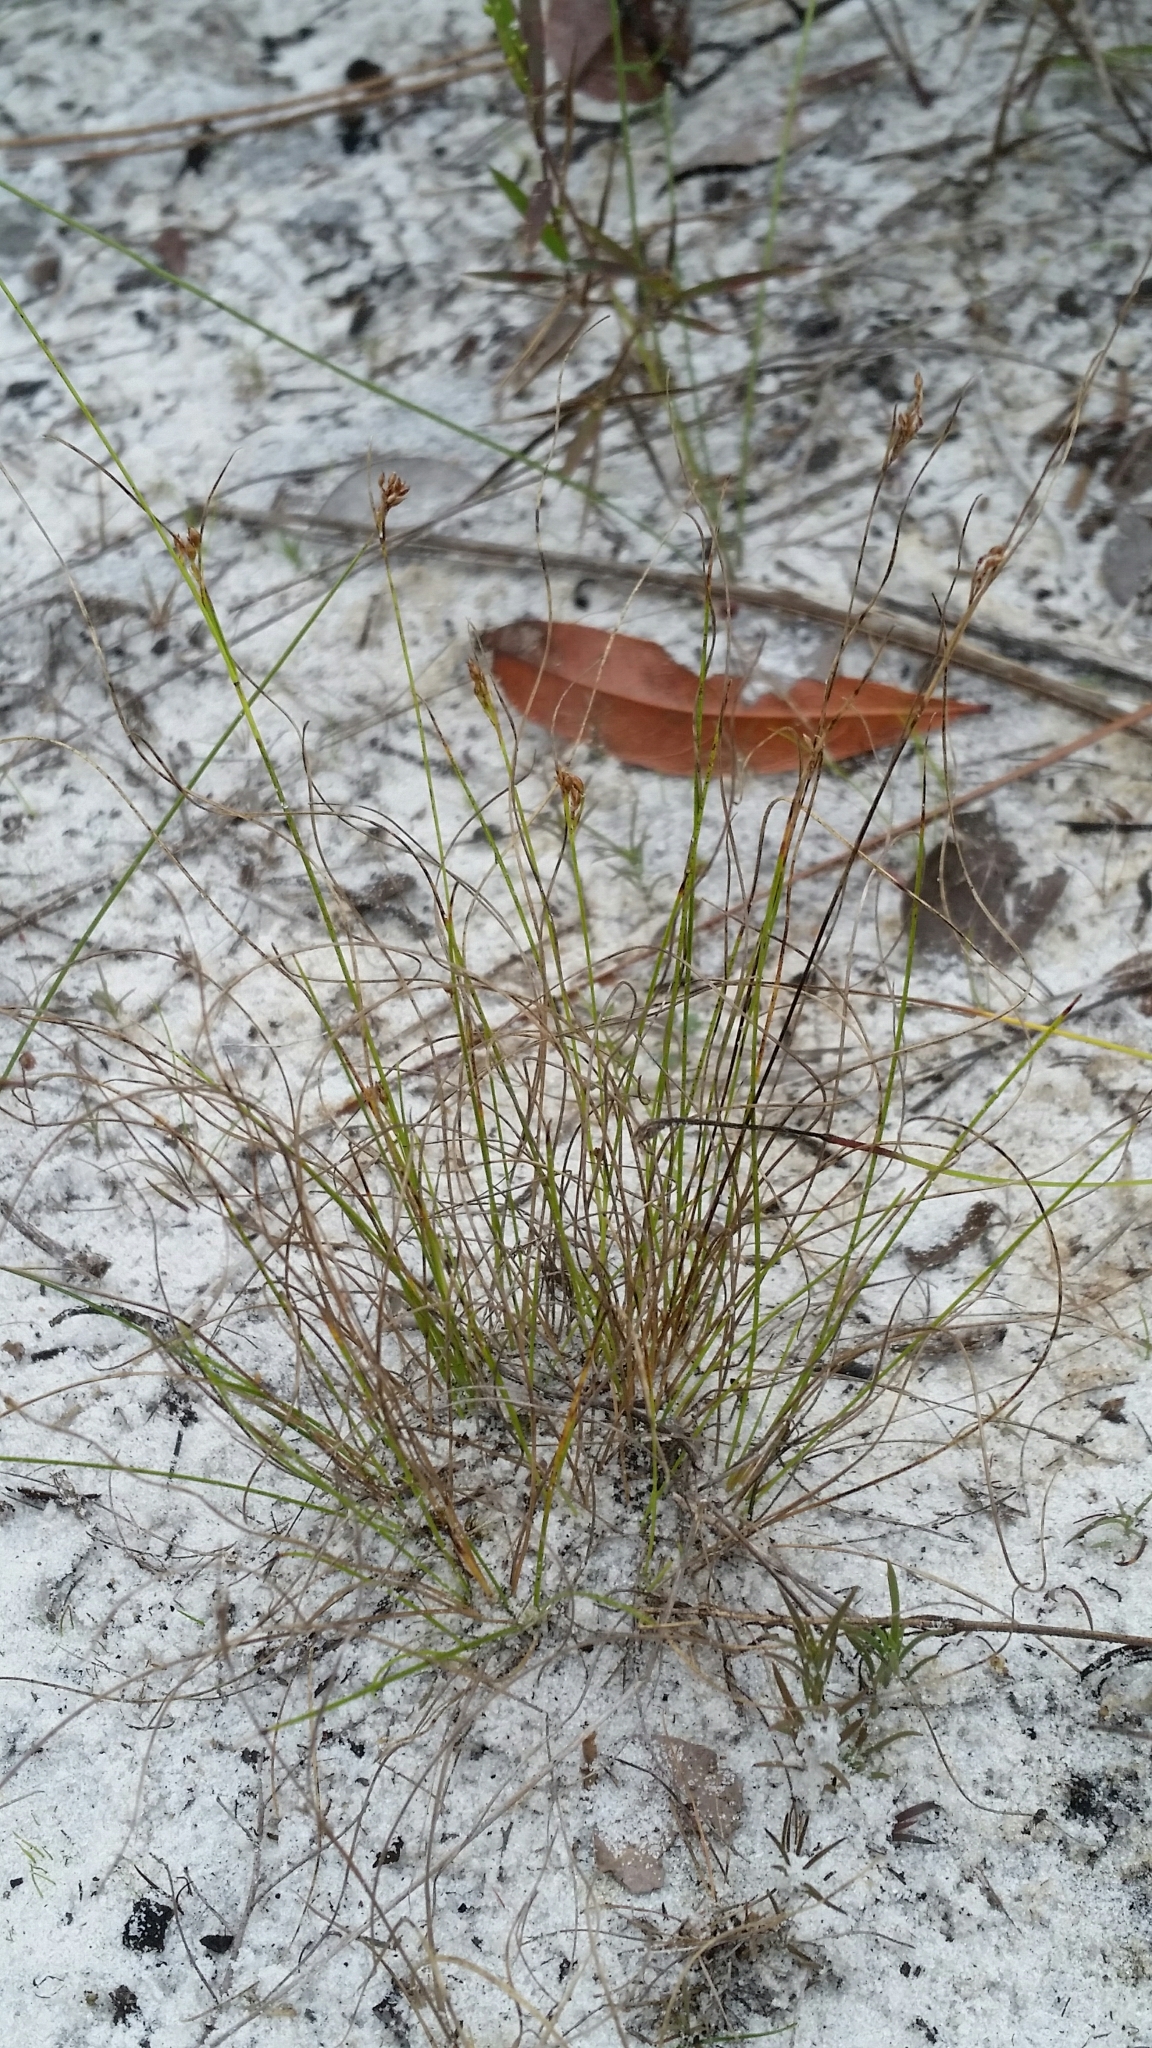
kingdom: Plantae
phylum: Tracheophyta
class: Liliopsida
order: Poales
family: Cyperaceae
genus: Rhynchospora
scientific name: Rhynchospora pusilla
